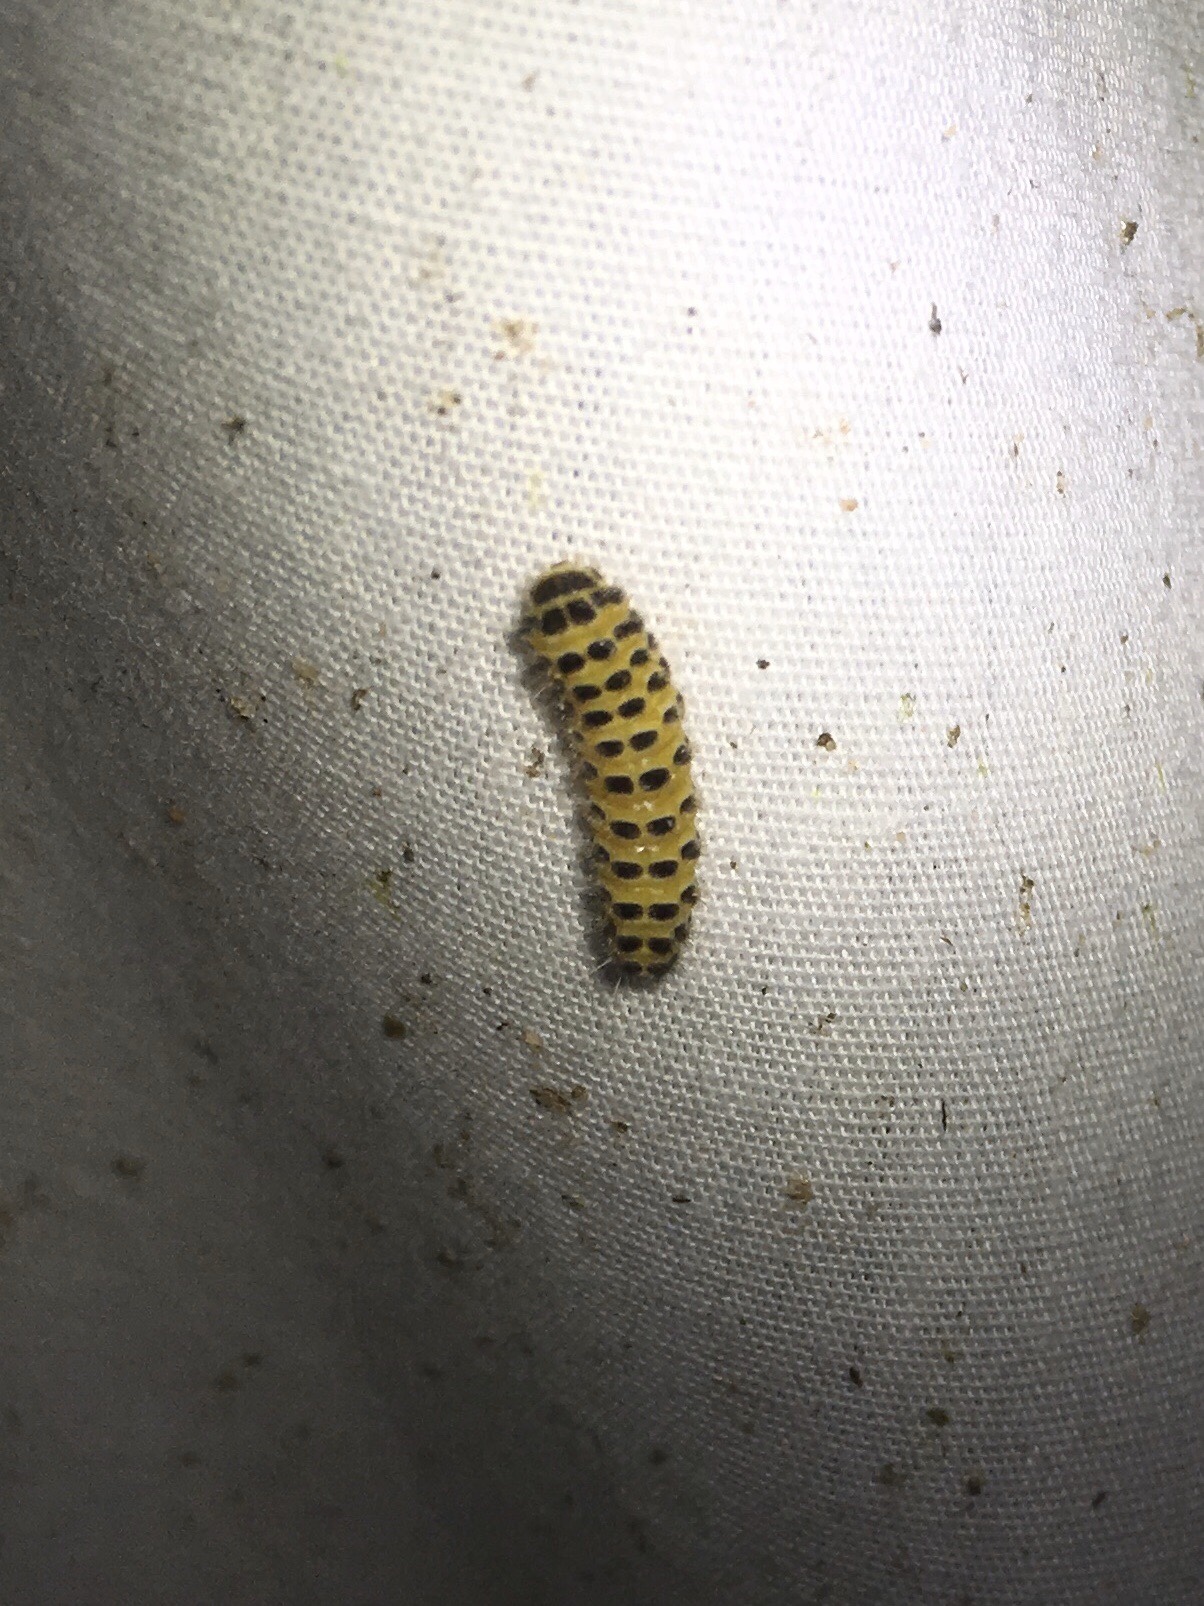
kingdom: Animalia
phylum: Arthropoda
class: Insecta
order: Lepidoptera
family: Zygaenidae
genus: Harrisina
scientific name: Harrisina americana
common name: Grapeleaf skeletonizer moth
